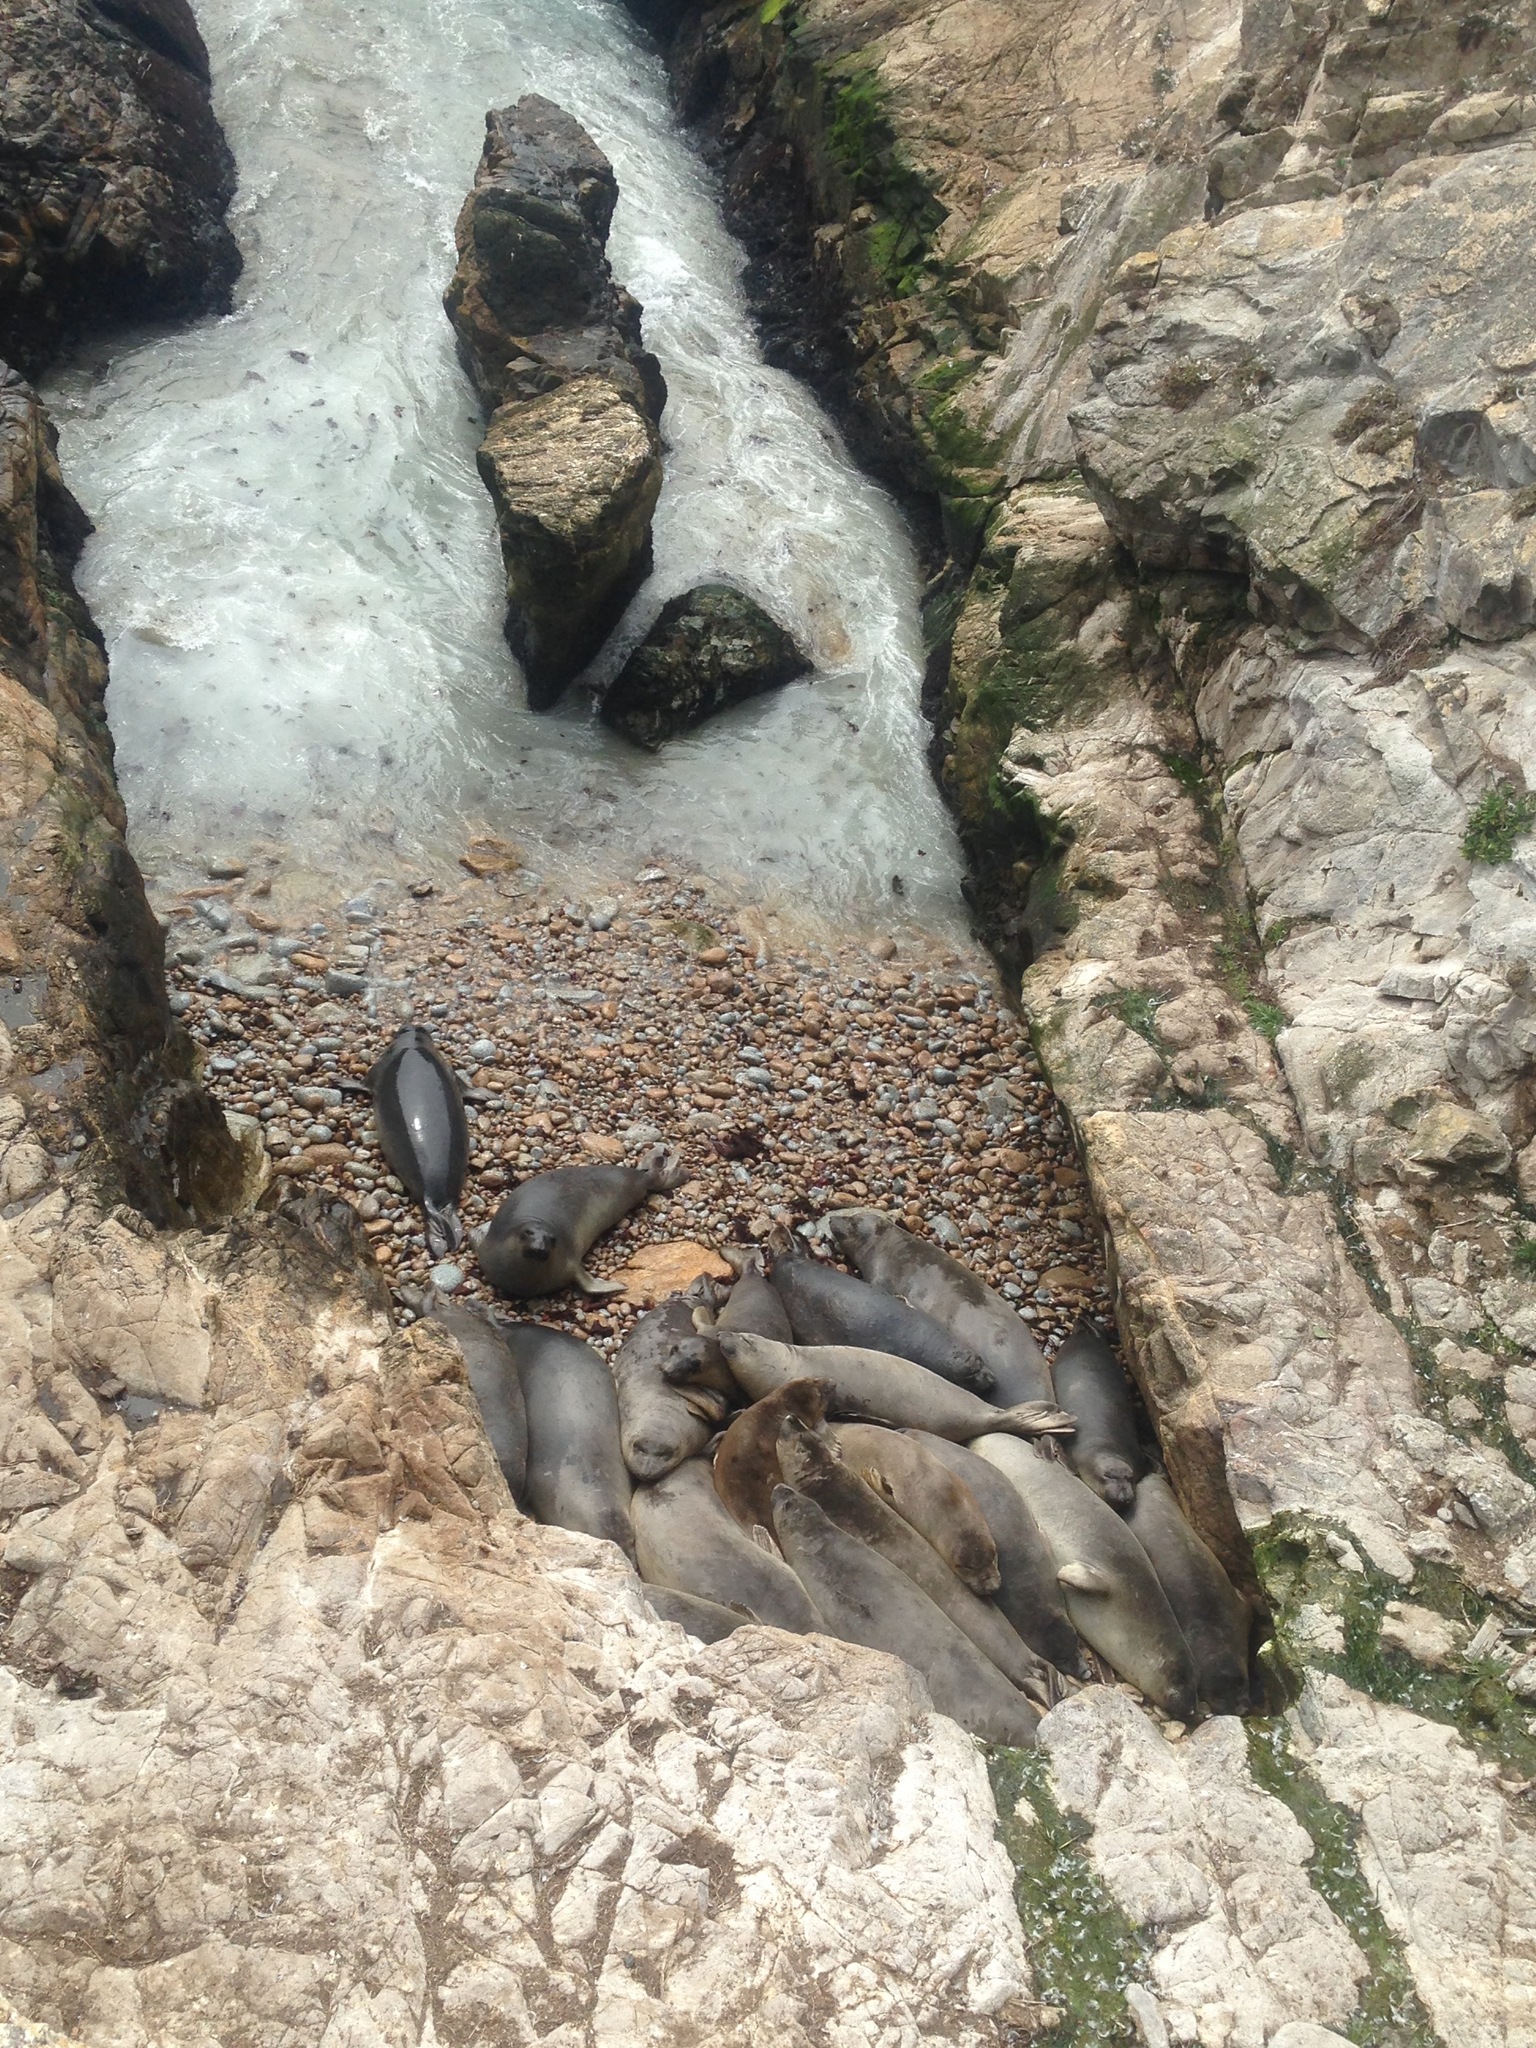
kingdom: Animalia
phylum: Chordata
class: Mammalia
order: Carnivora
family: Phocidae
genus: Mirounga
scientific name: Mirounga angustirostris
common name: Northern elephant seal
